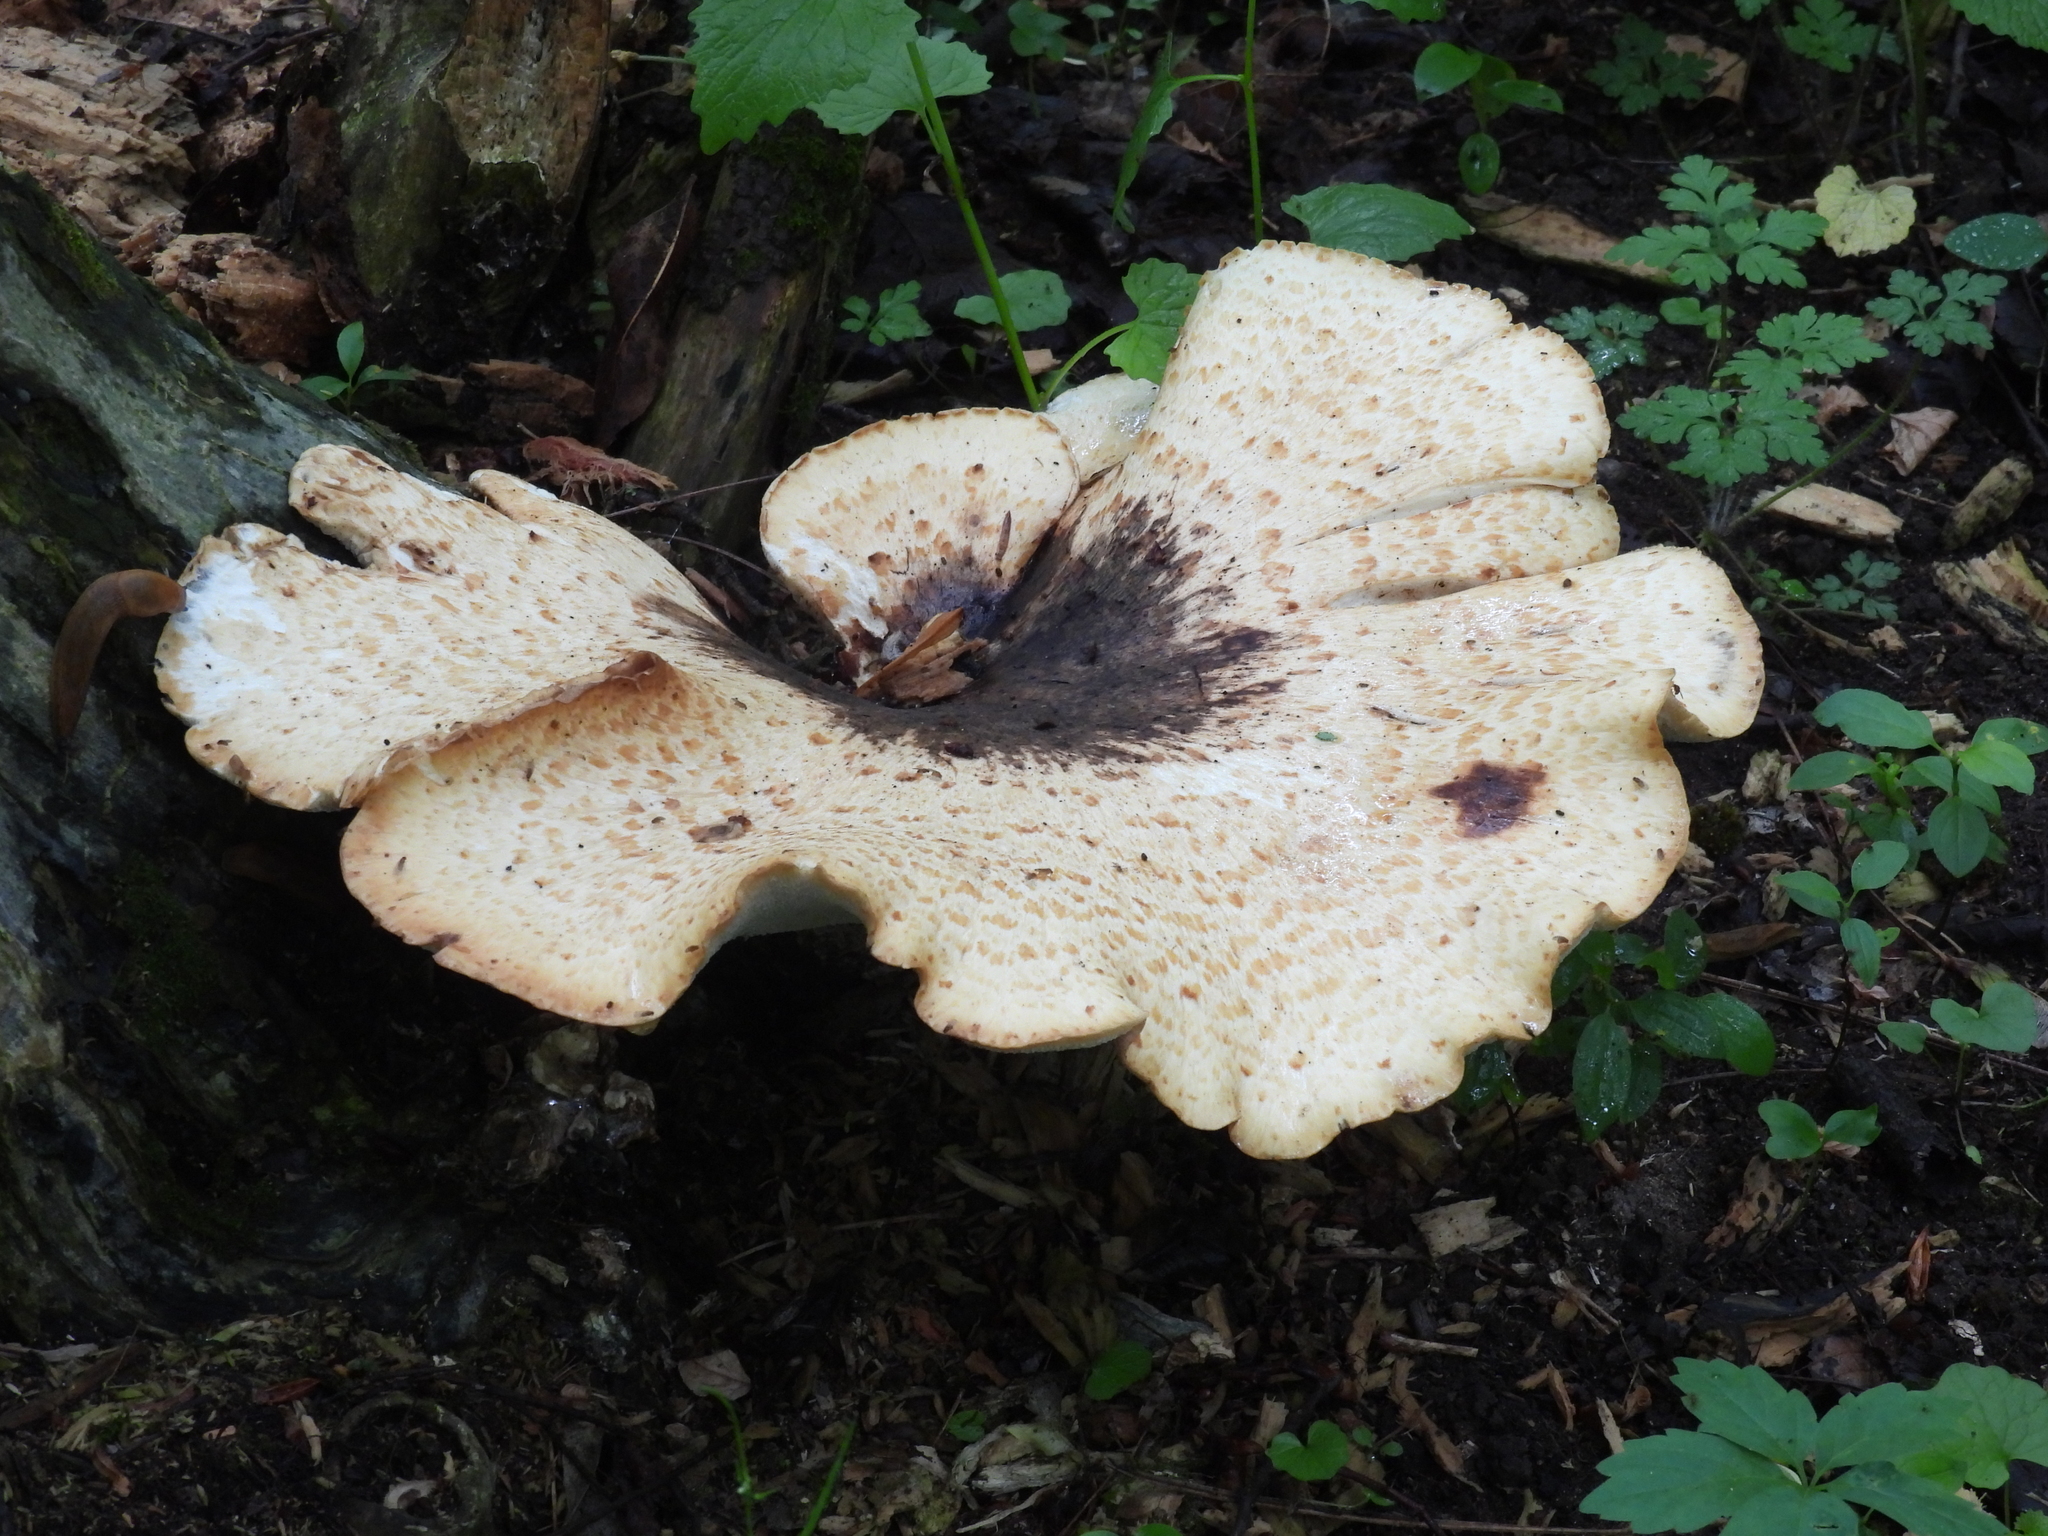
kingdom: Fungi
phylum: Basidiomycota
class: Agaricomycetes
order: Polyporales
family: Polyporaceae
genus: Cerioporus
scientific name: Cerioporus squamosus
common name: Dryad's saddle
